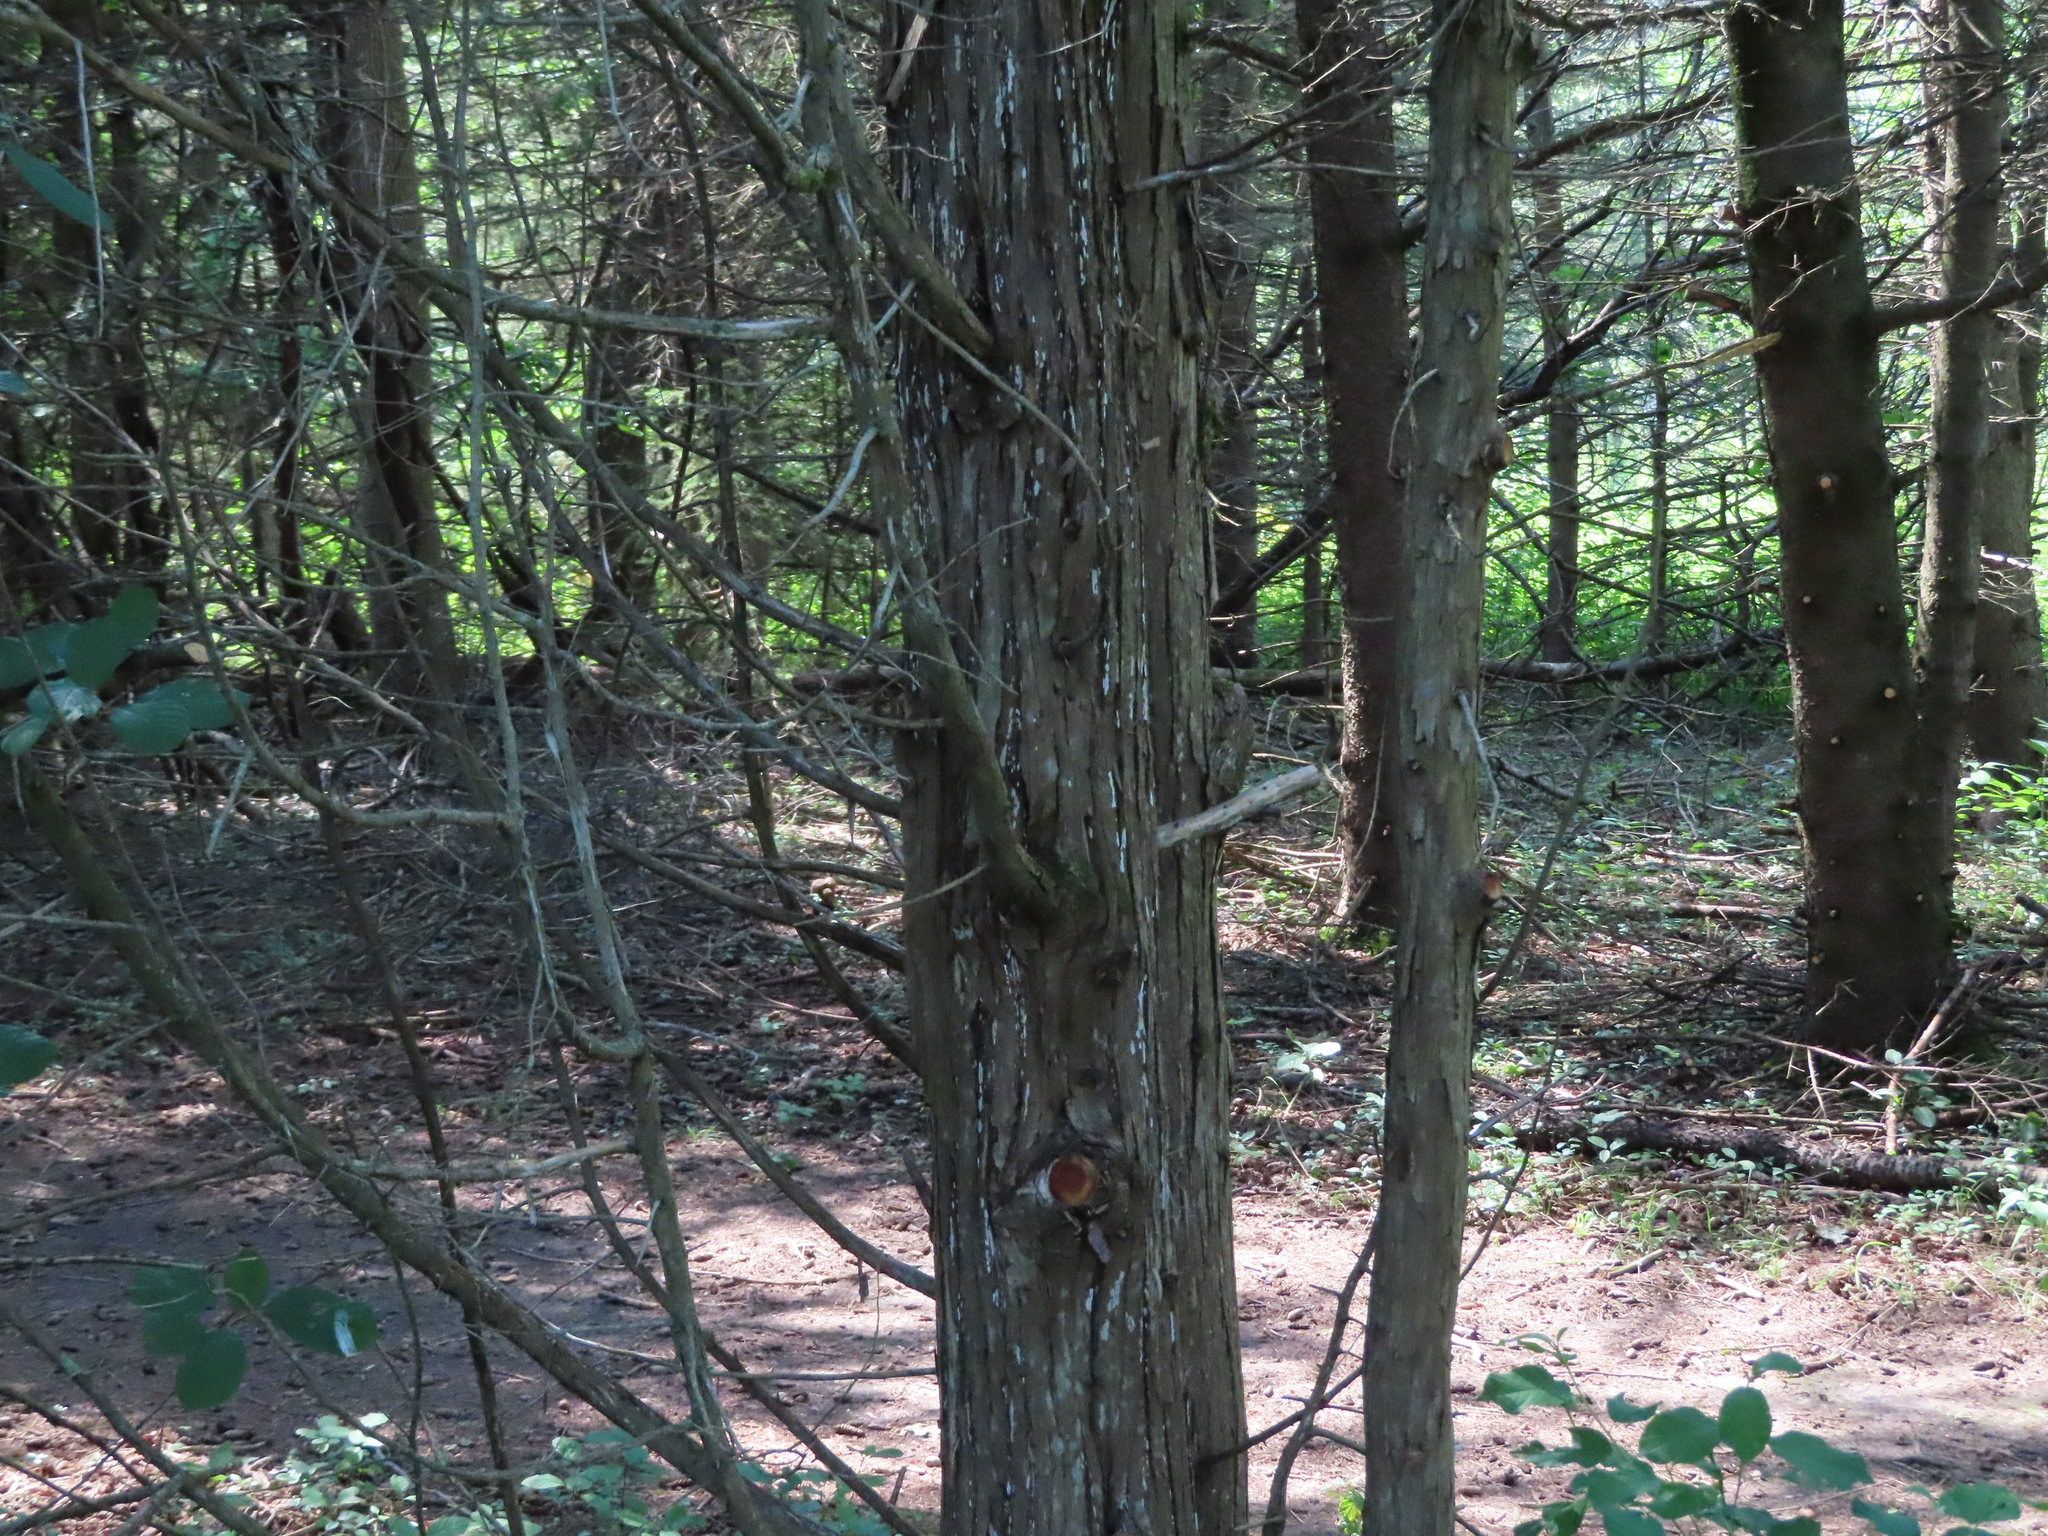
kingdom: Plantae
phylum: Tracheophyta
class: Pinopsida
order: Pinales
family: Cupressaceae
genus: Juniperus
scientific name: Juniperus virginiana
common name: Red juniper
